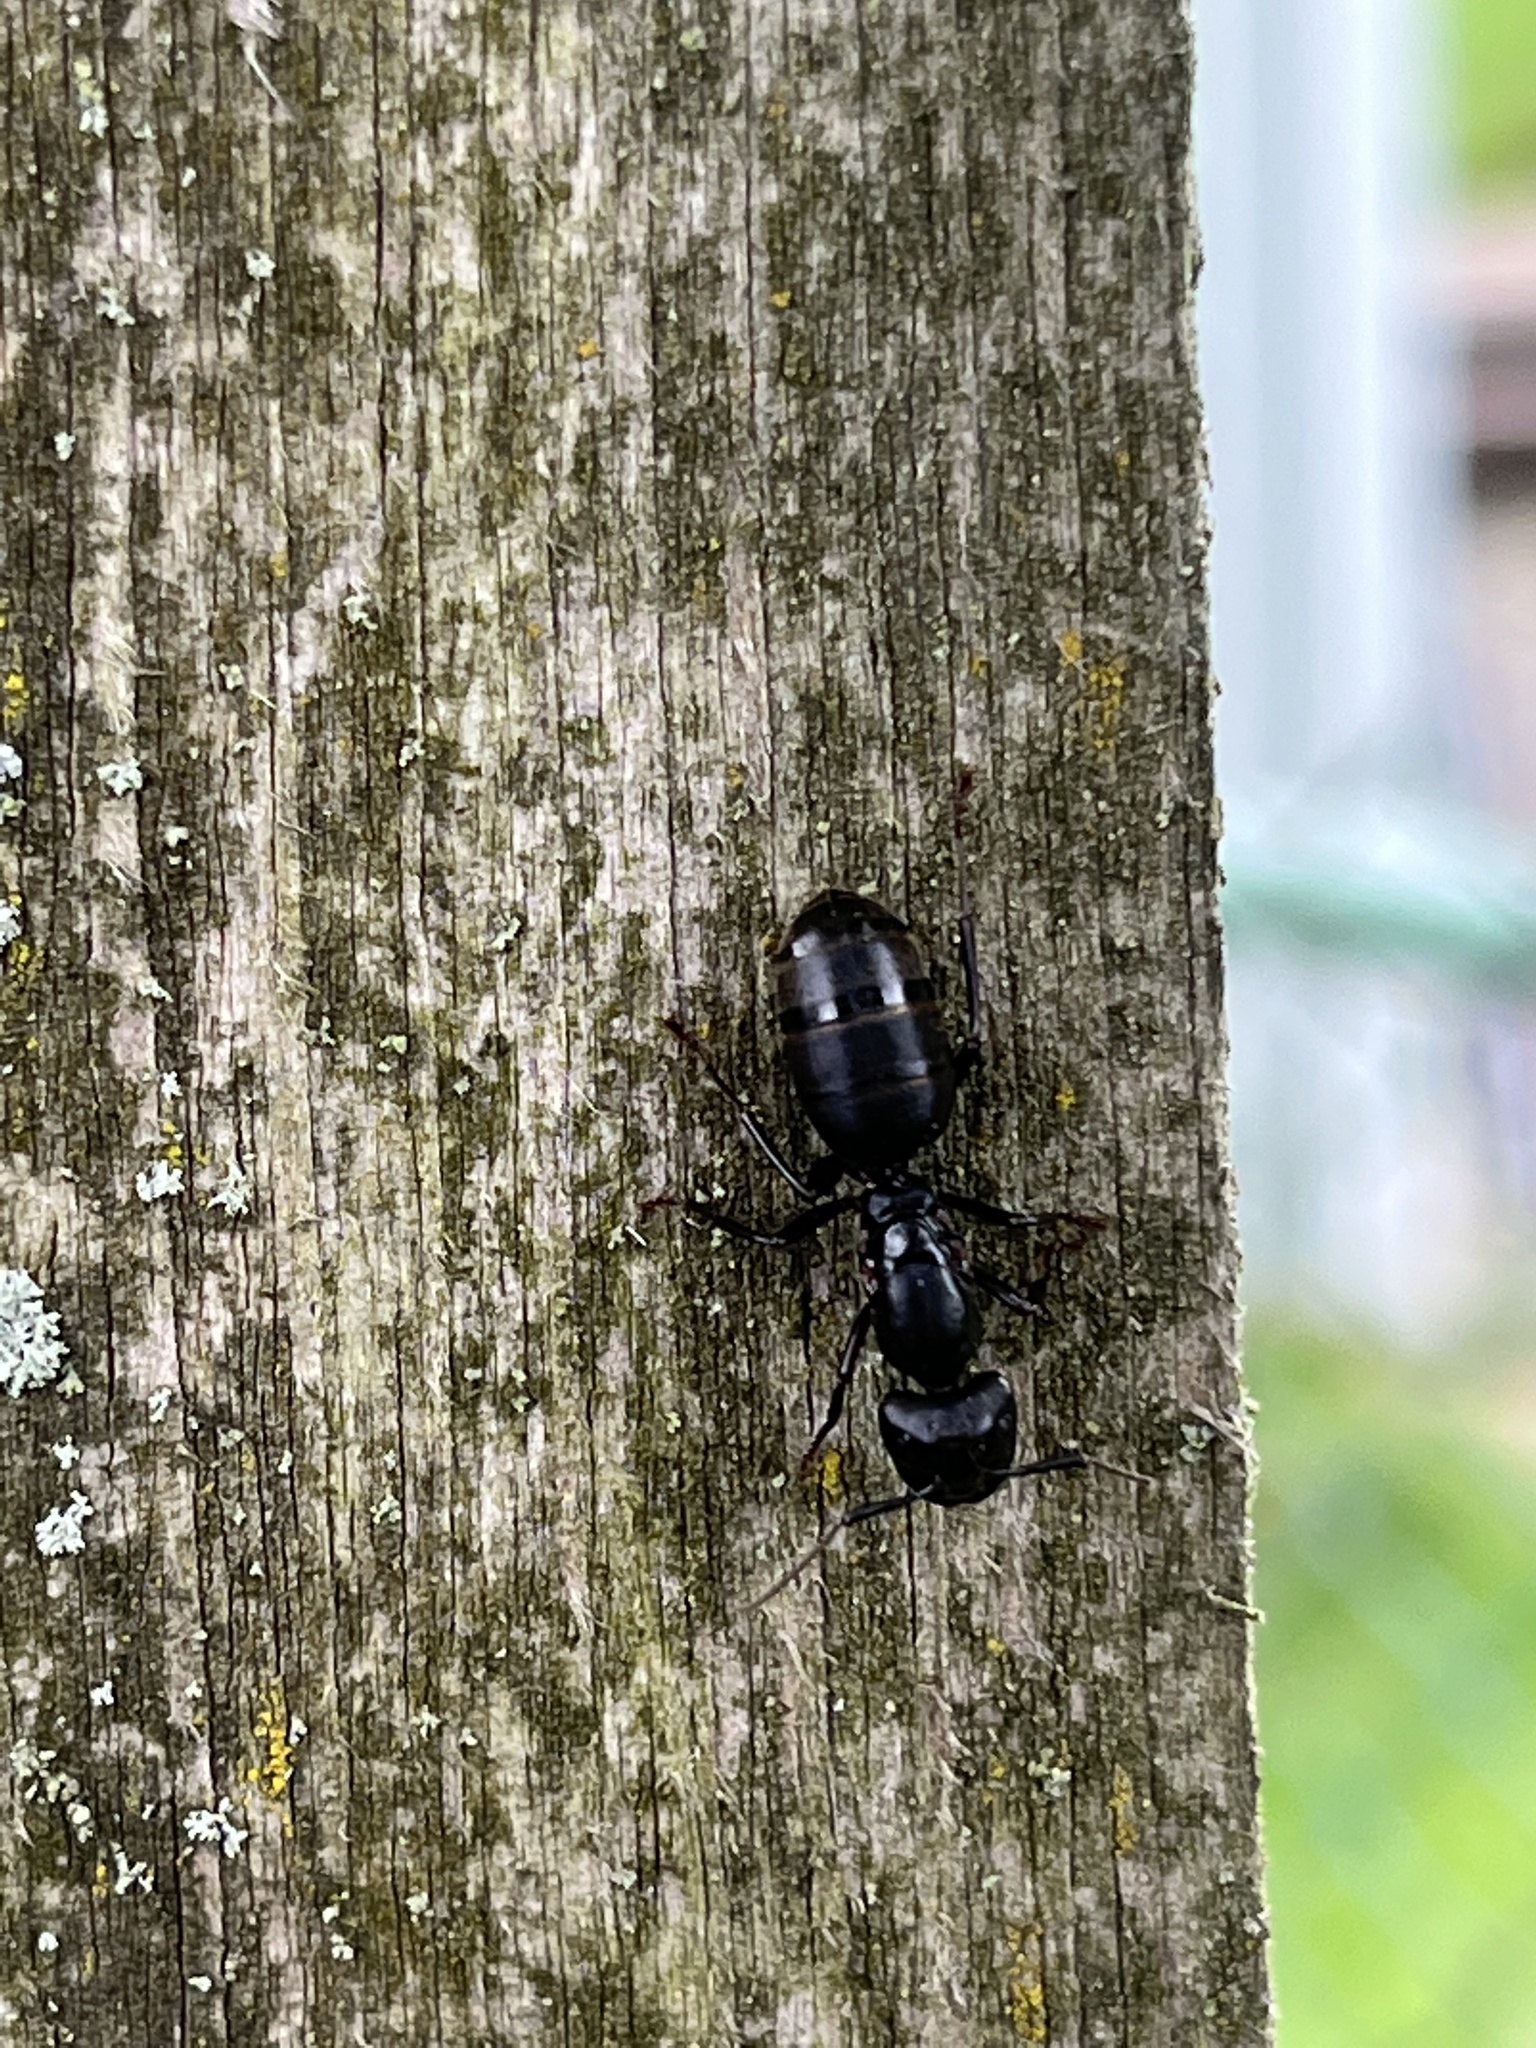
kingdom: Animalia
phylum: Arthropoda
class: Insecta
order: Hymenoptera
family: Formicidae
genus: Camponotus
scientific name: Camponotus pennsylvanicus
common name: Black carpenter ant
